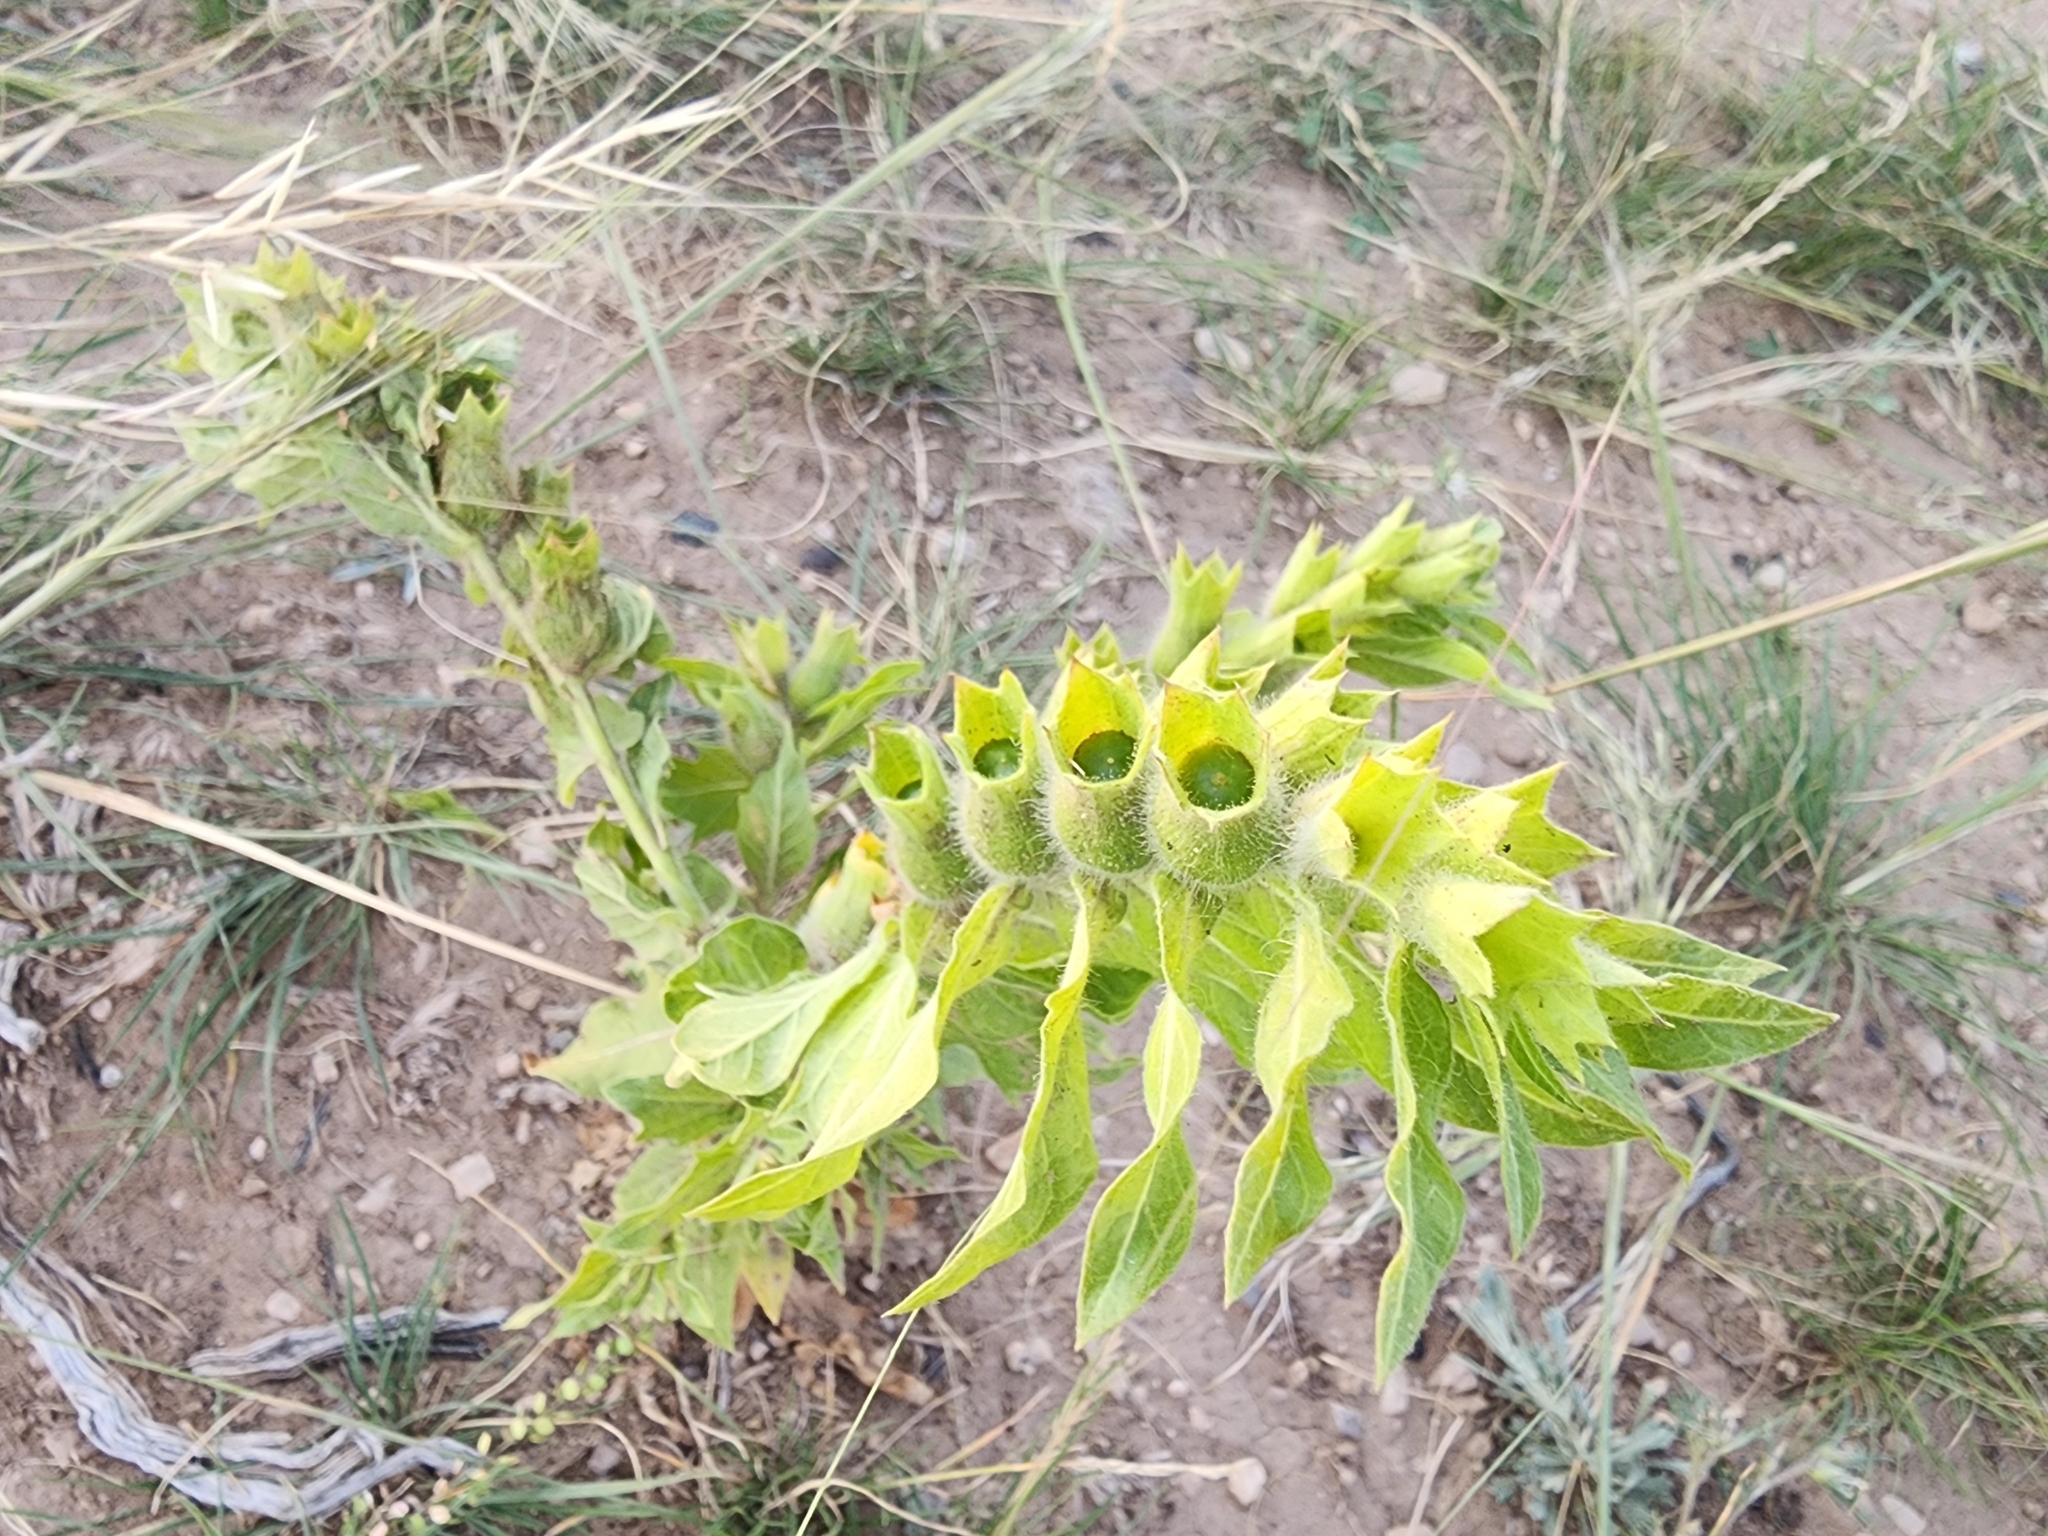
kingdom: Plantae
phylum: Tracheophyta
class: Magnoliopsida
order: Solanales
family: Solanaceae
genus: Hyoscyamus
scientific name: Hyoscyamus niger
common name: Henbane
